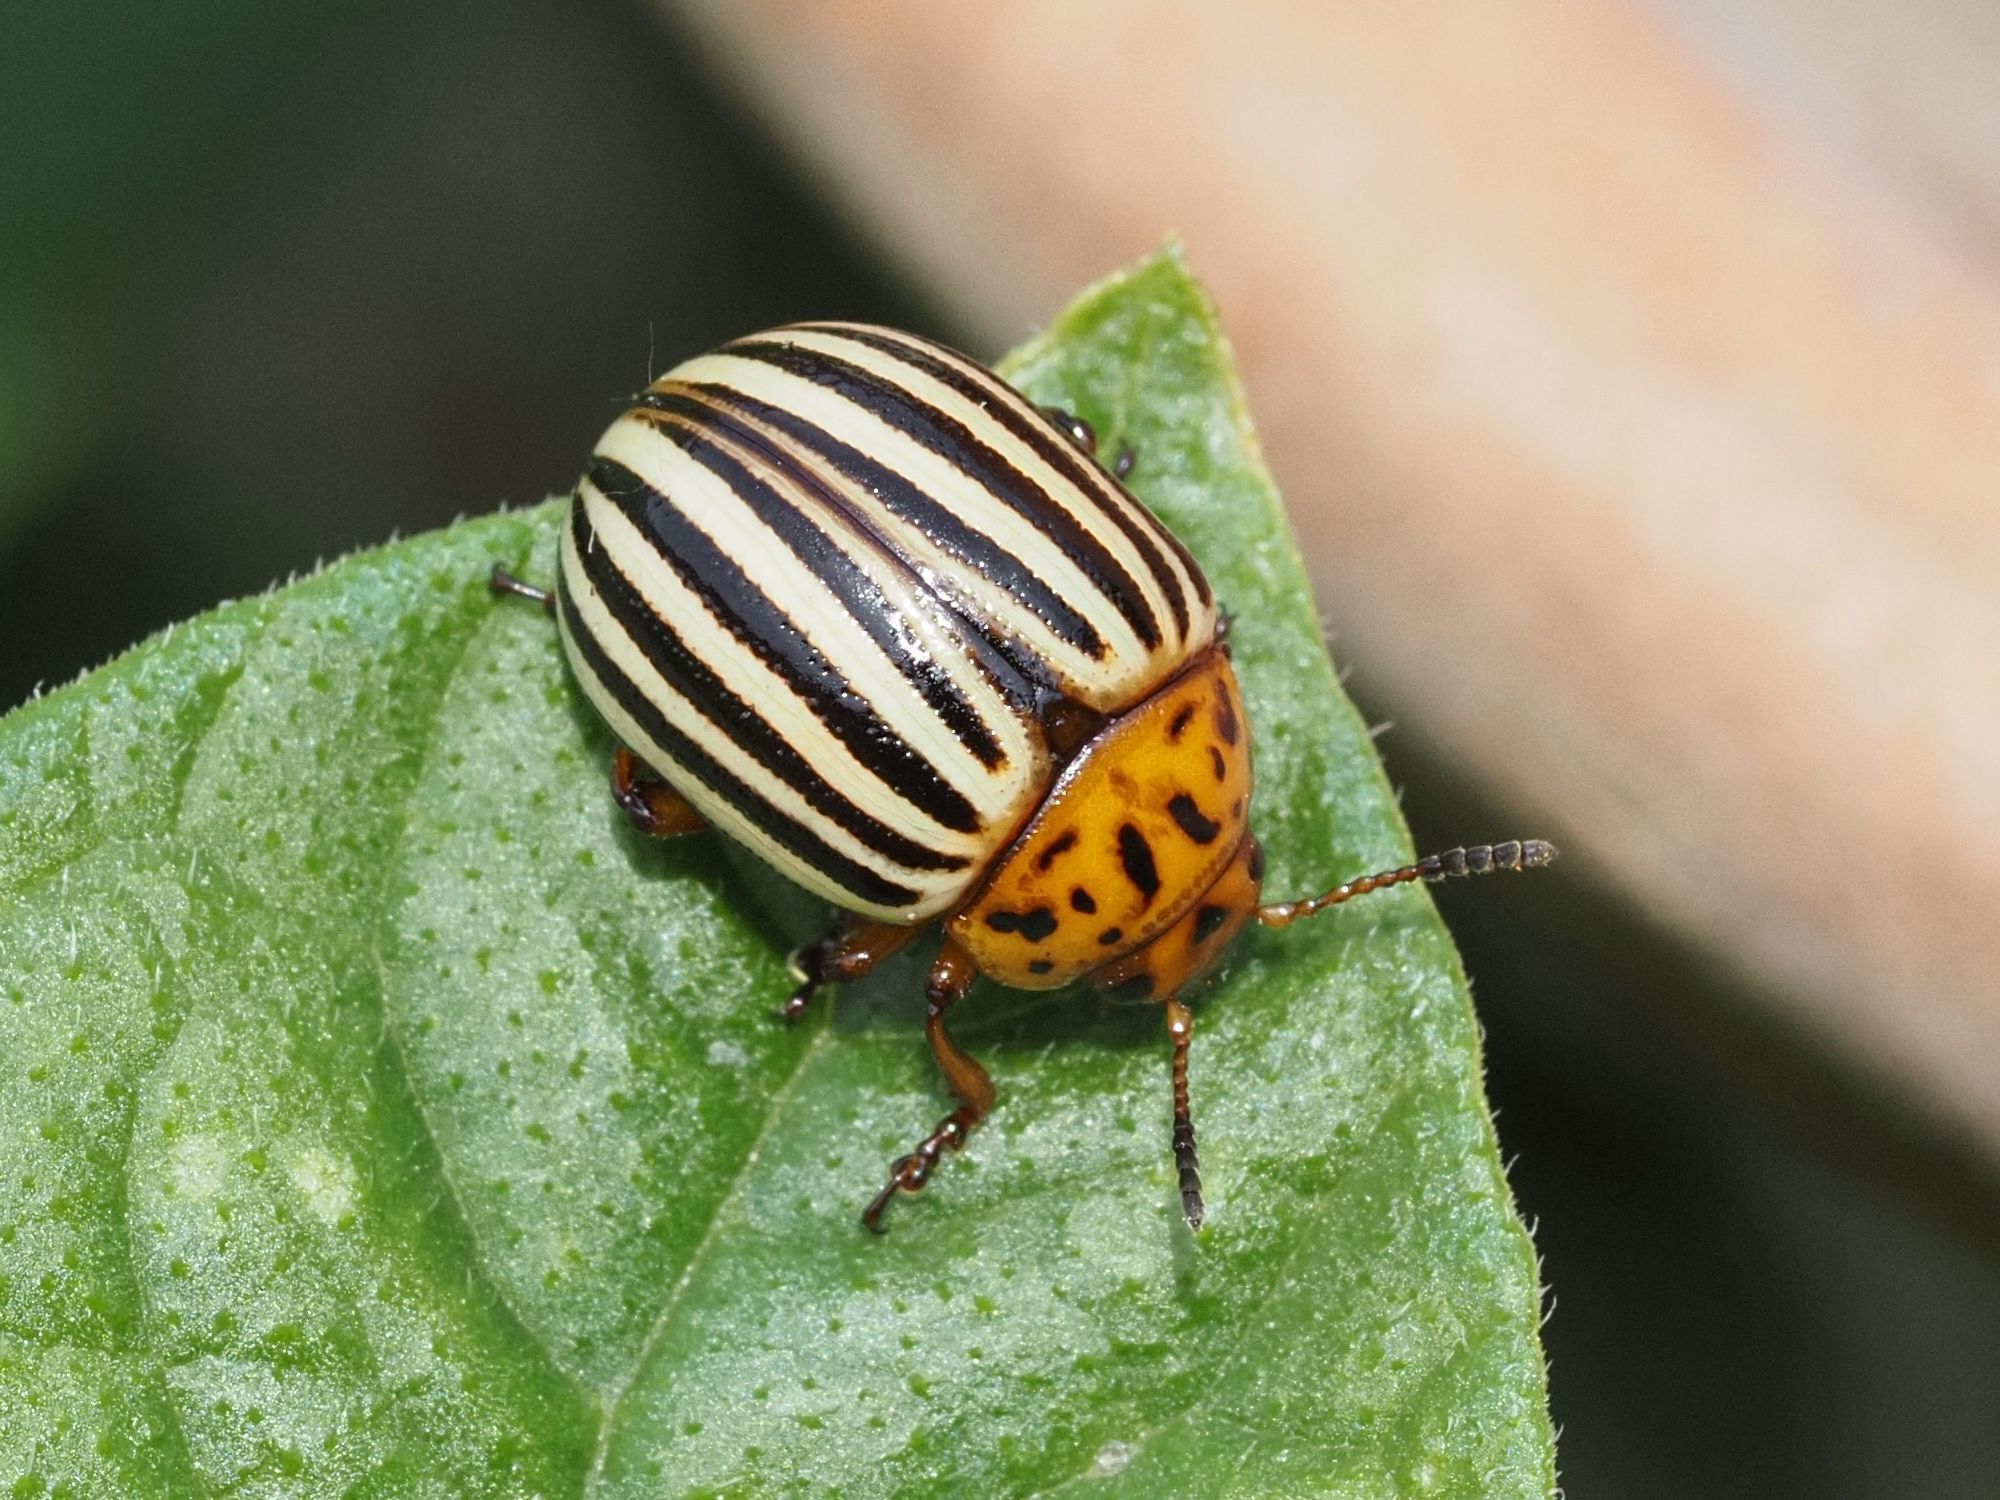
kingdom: Animalia
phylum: Arthropoda
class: Insecta
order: Coleoptera
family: Chrysomelidae
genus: Leptinotarsa
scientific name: Leptinotarsa decemlineata
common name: Colorado potato beetle
